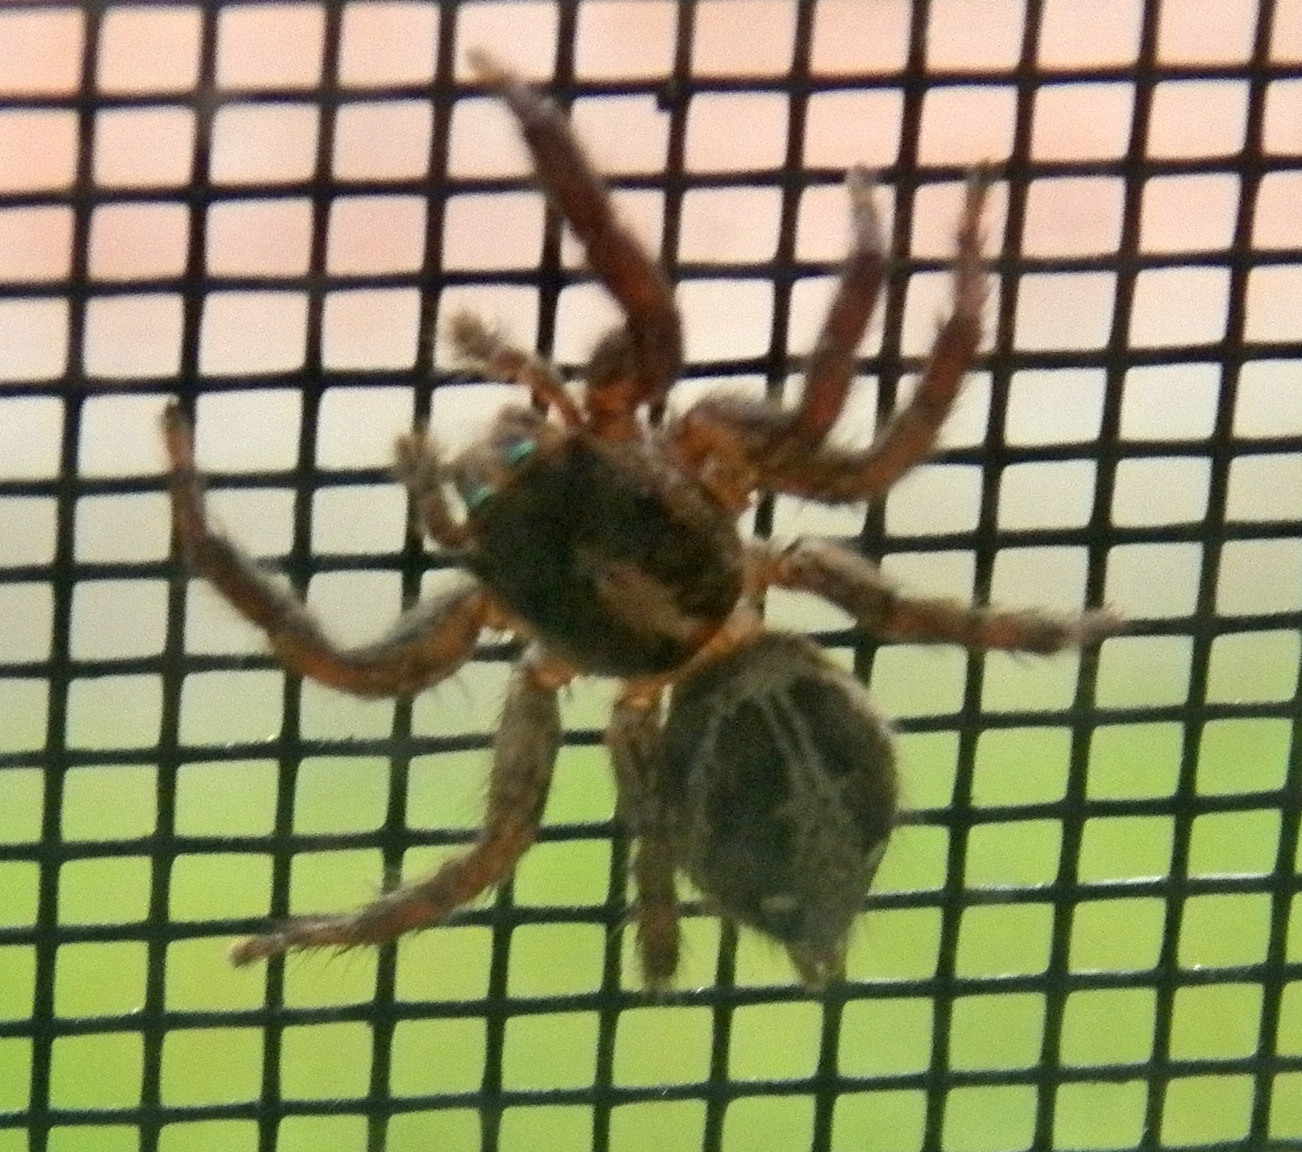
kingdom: Animalia
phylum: Arthropoda
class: Arachnida
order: Araneae
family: Salticidae
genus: Plexippus
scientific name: Plexippus paykulli
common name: Pantropical jumper
